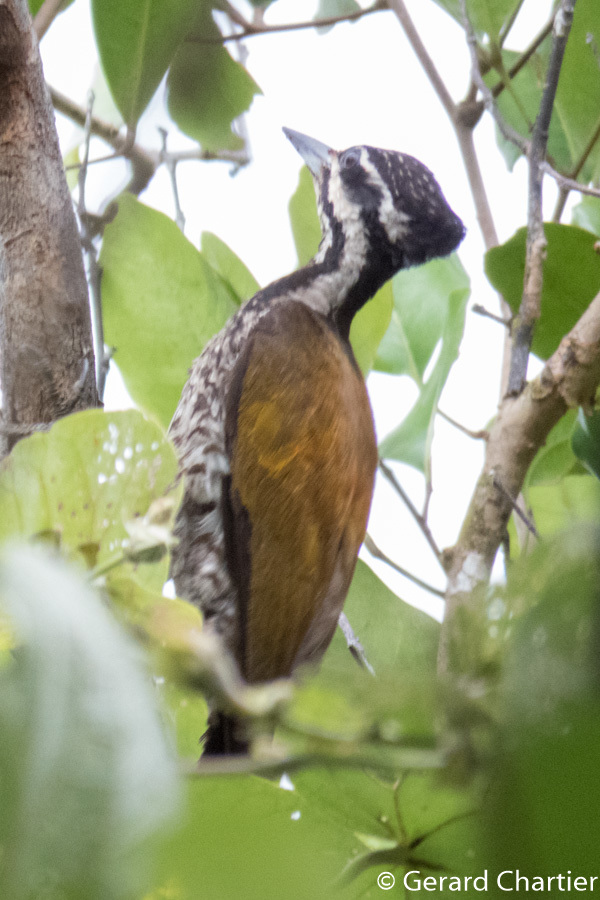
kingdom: Animalia
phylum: Chordata
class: Aves
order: Piciformes
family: Picidae
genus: Dinopium
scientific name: Dinopium javanense
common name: Common flameback
